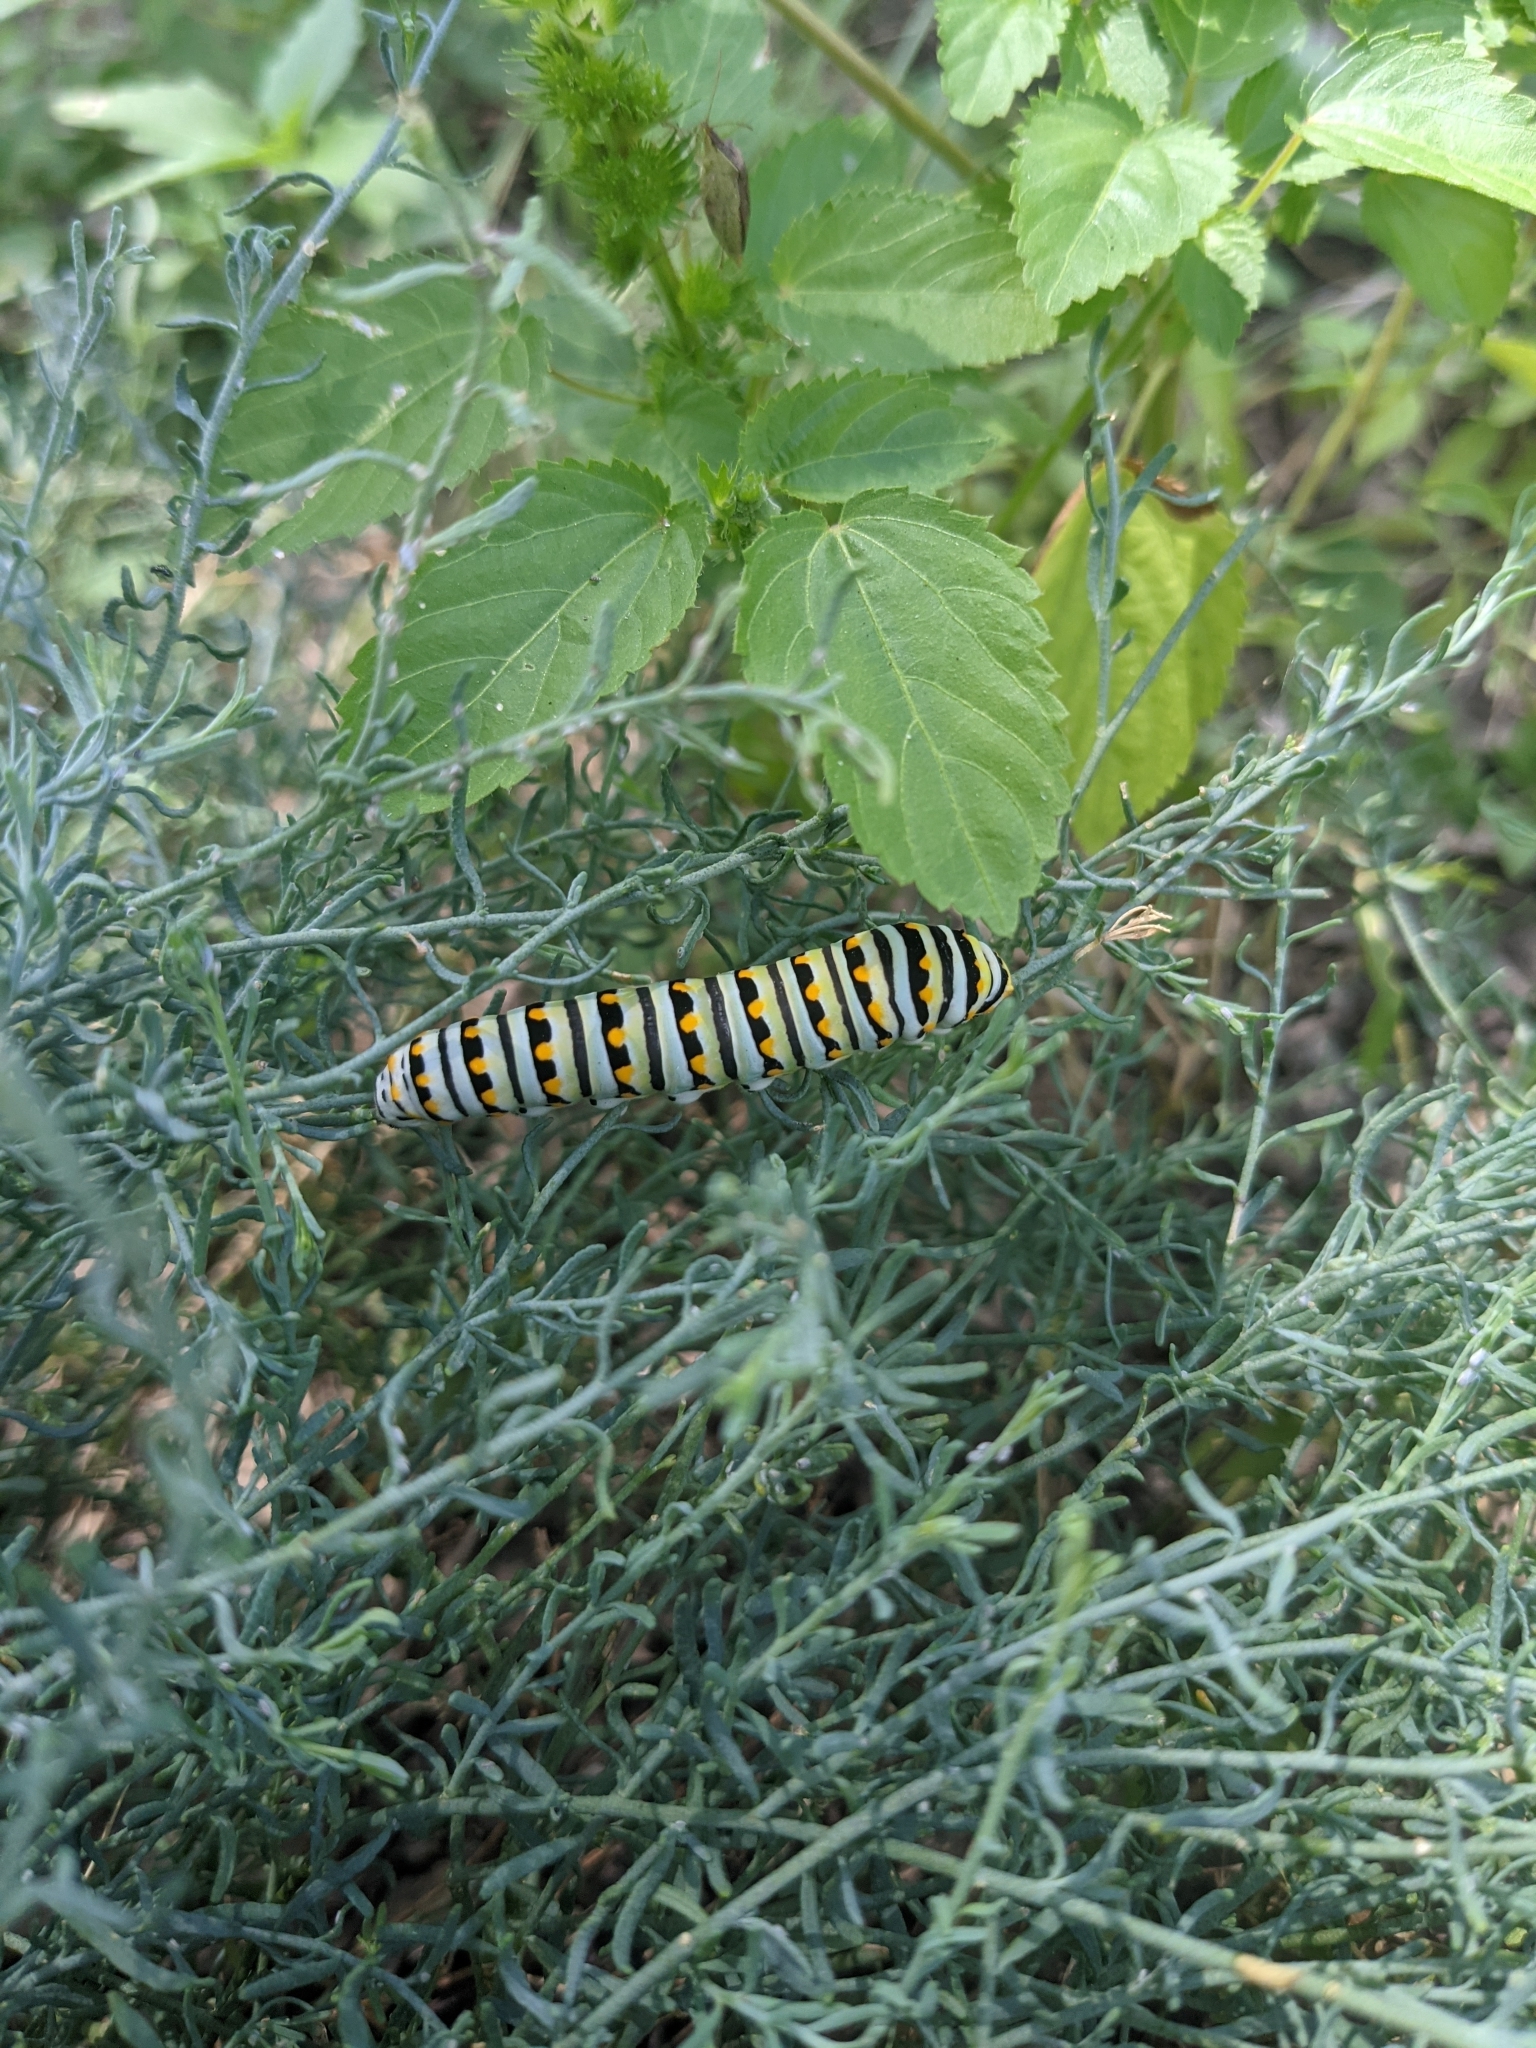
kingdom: Animalia
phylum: Arthropoda
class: Insecta
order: Lepidoptera
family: Papilionidae
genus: Papilio
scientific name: Papilio polyxenes
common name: Black swallowtail
